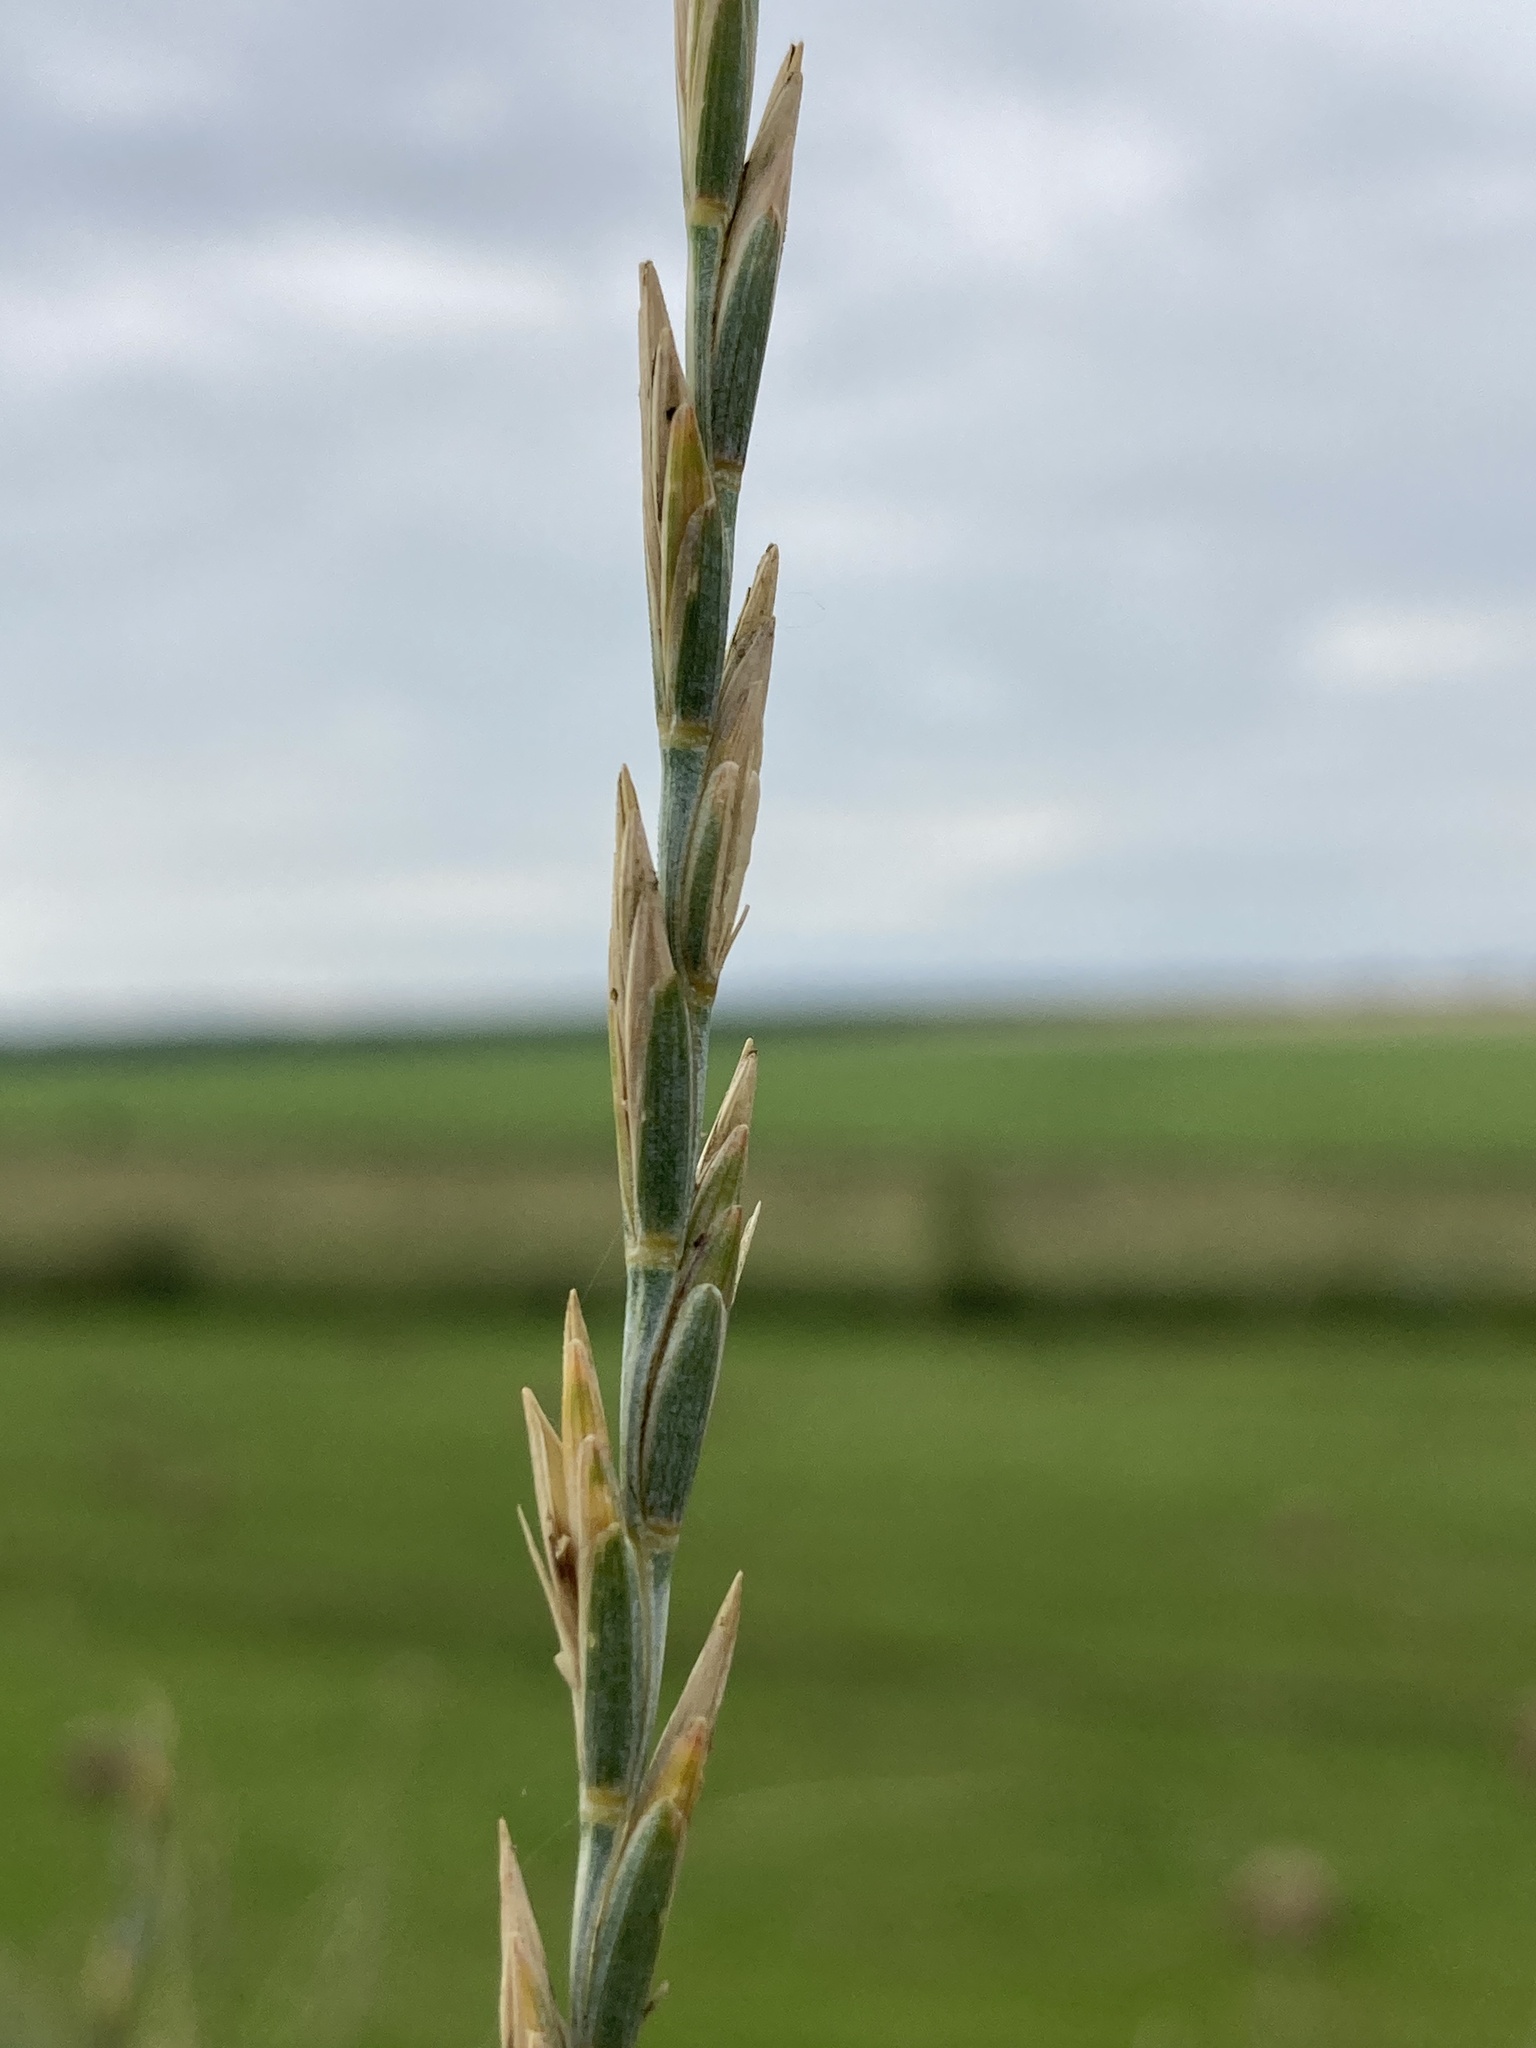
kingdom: Plantae
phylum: Tracheophyta
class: Liliopsida
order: Poales
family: Poaceae
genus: Thinopyrum
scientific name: Thinopyrum intermedium
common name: Intermediate wheatgrass
